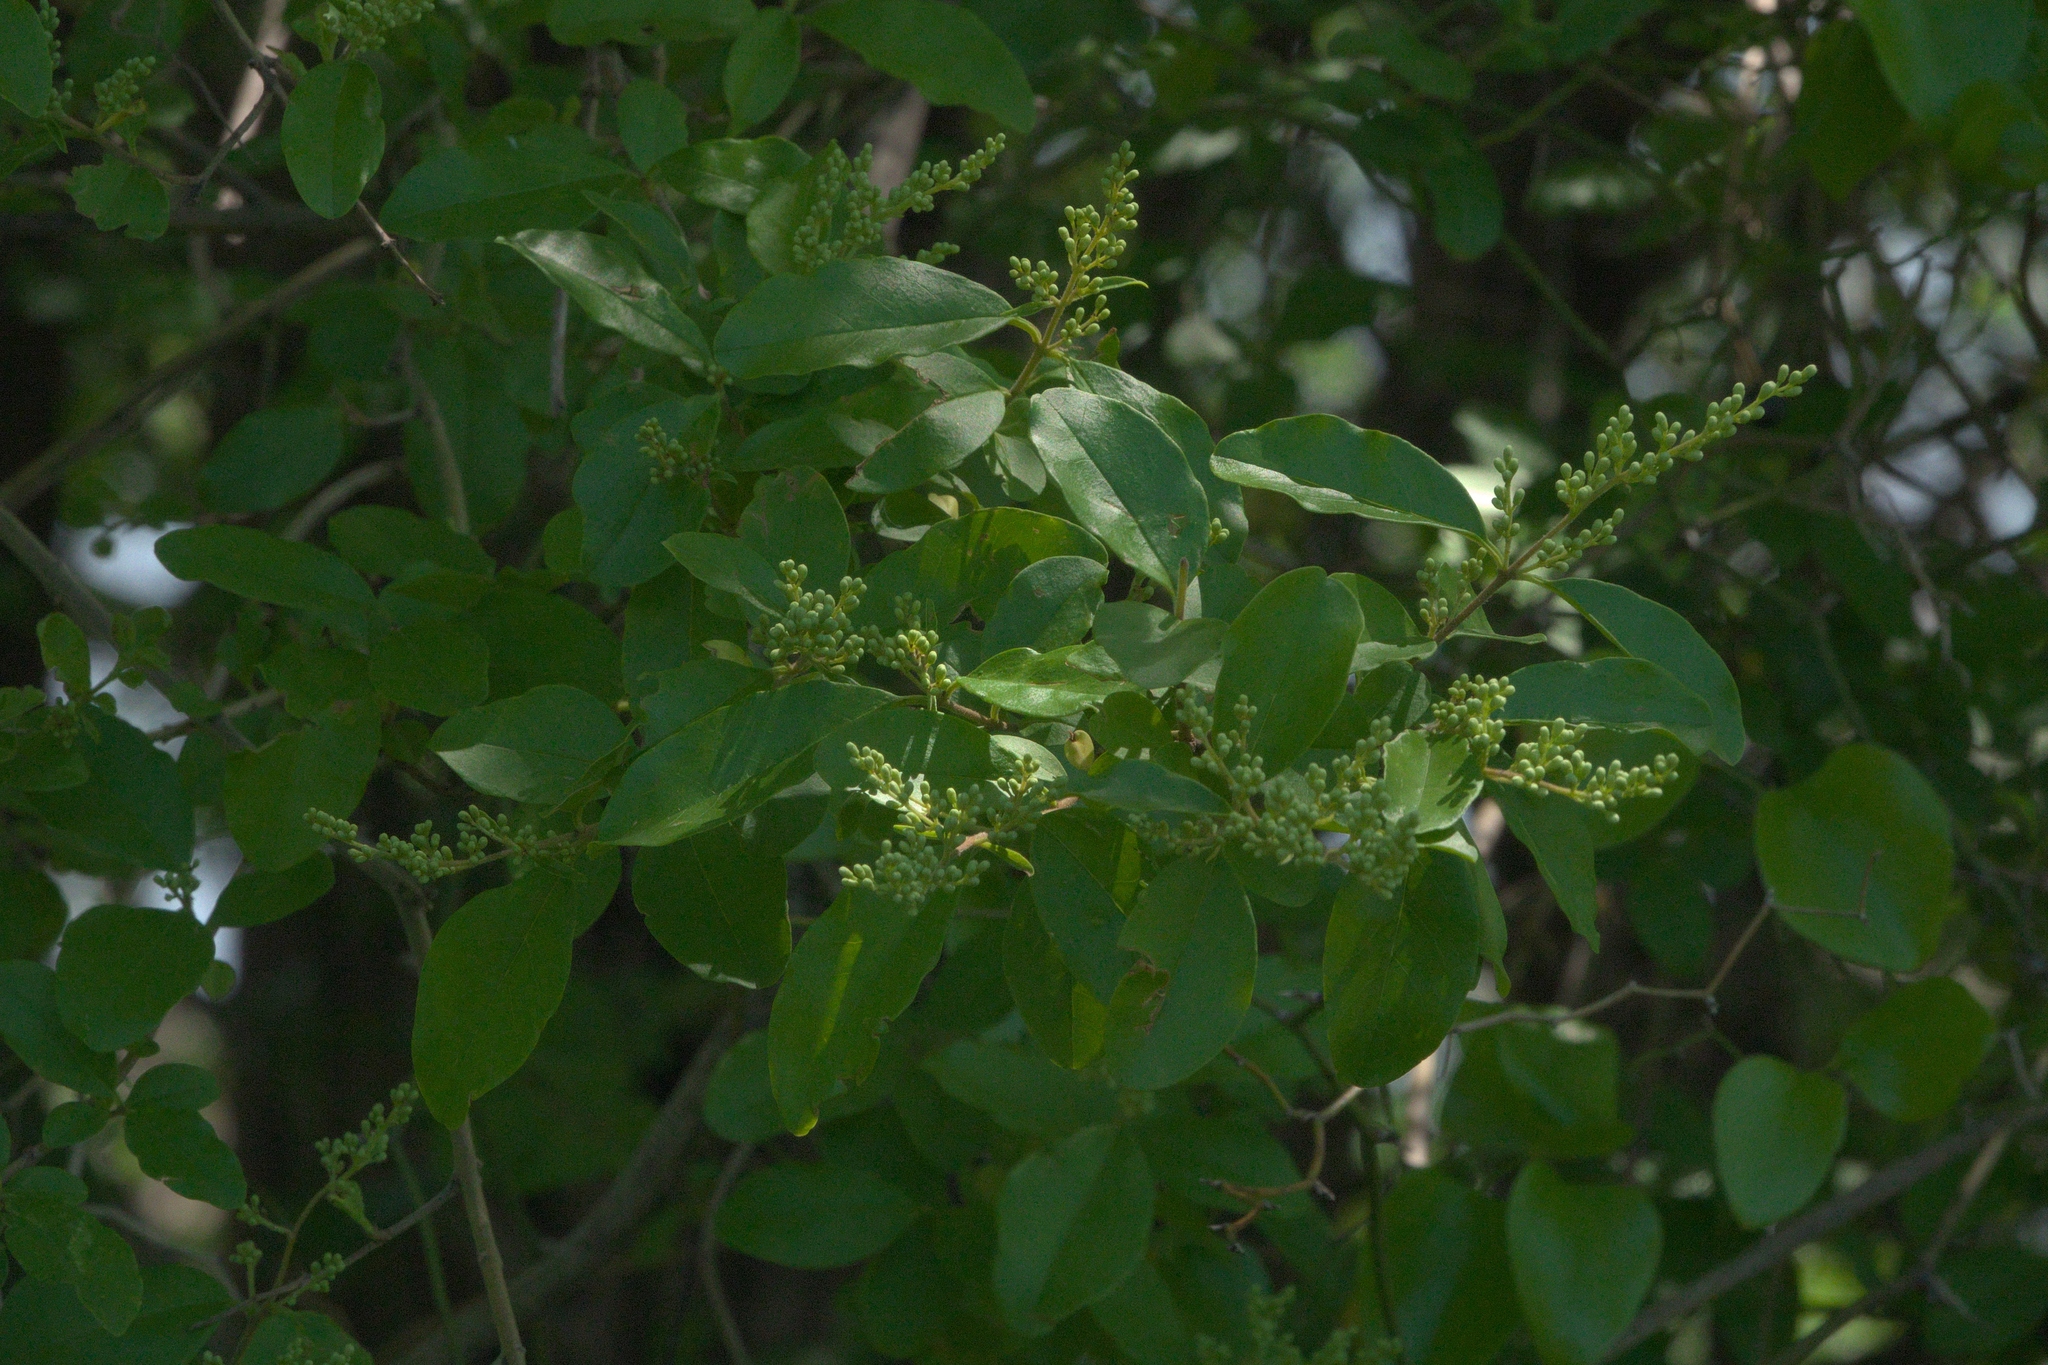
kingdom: Plantae
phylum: Tracheophyta
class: Magnoliopsida
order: Lamiales
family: Oleaceae
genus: Ligustrum
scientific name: Ligustrum sinense
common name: Chinese privet
